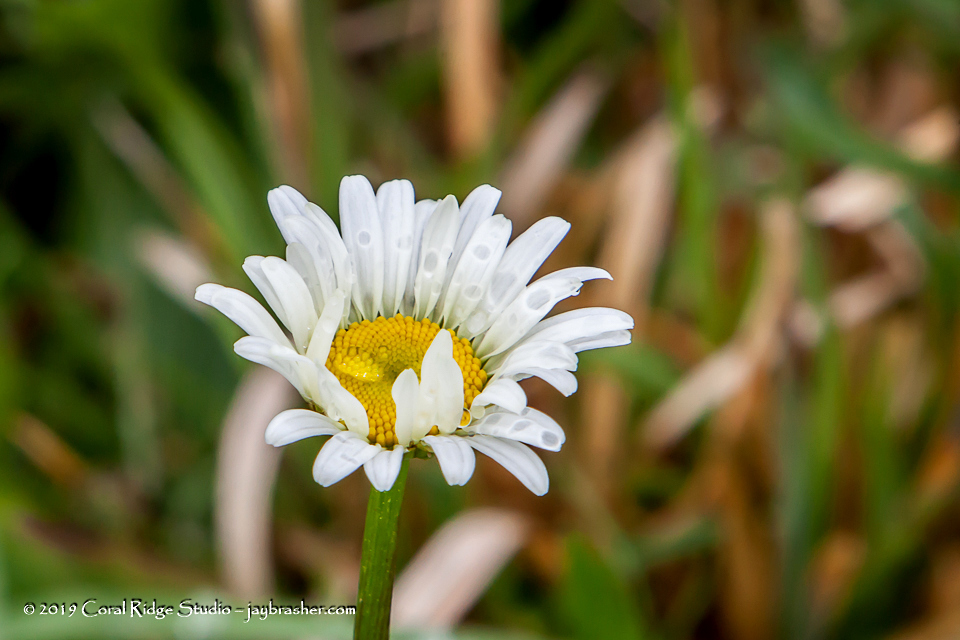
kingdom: Plantae
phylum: Tracheophyta
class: Magnoliopsida
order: Asterales
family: Asteraceae
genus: Leucanthemum
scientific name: Leucanthemum vulgare
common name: Oxeye daisy
